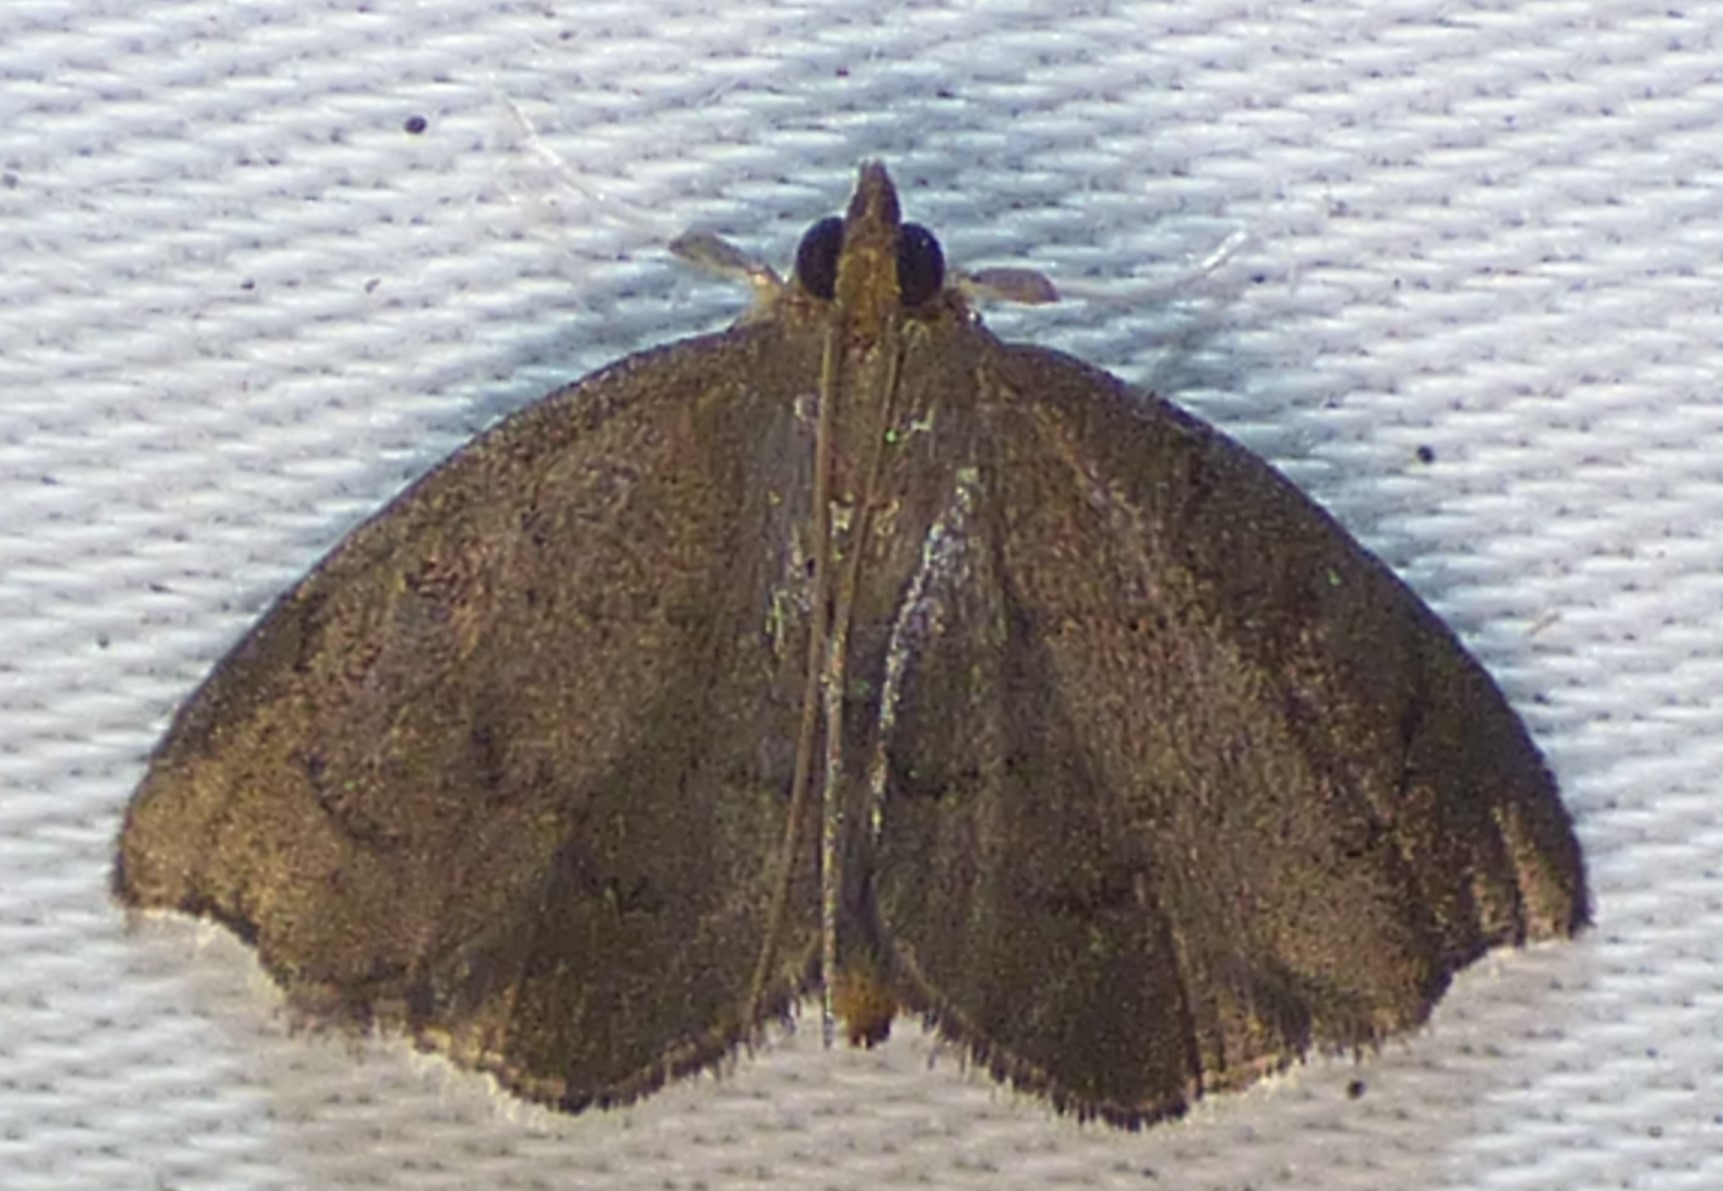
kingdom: Animalia
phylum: Arthropoda
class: Insecta
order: Lepidoptera
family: Crambidae
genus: Perispasta
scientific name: Perispasta caeculalis
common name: Titian peale's moth
